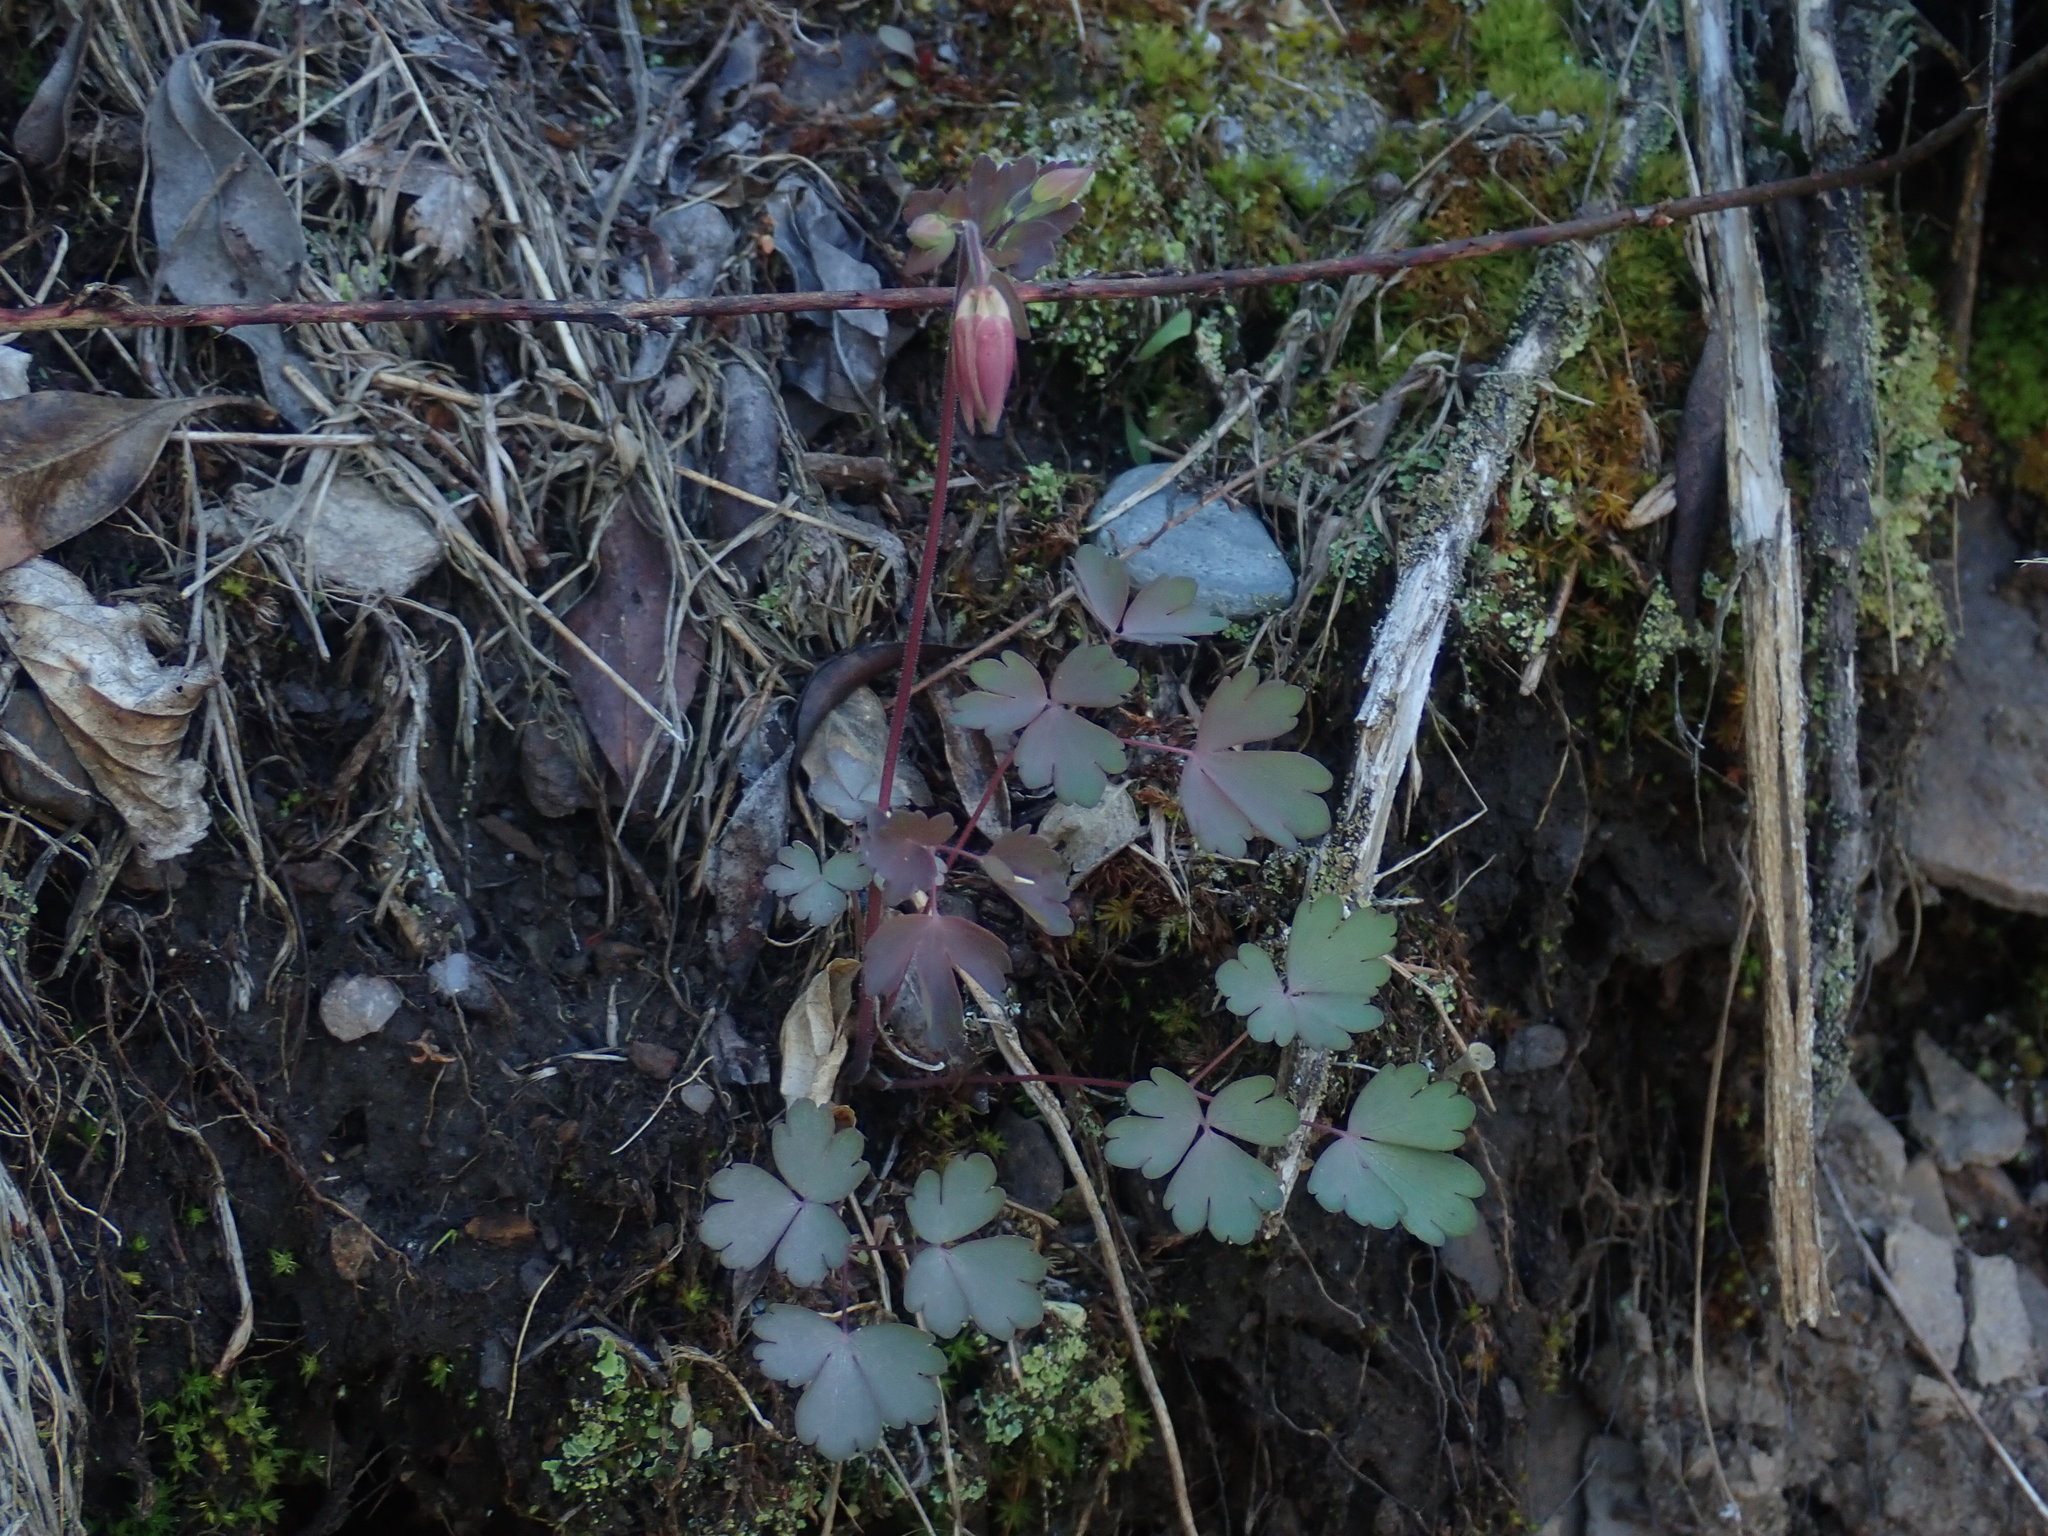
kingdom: Plantae
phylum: Tracheophyta
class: Magnoliopsida
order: Ranunculales
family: Ranunculaceae
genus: Aquilegia
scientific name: Aquilegia canadensis
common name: American columbine
